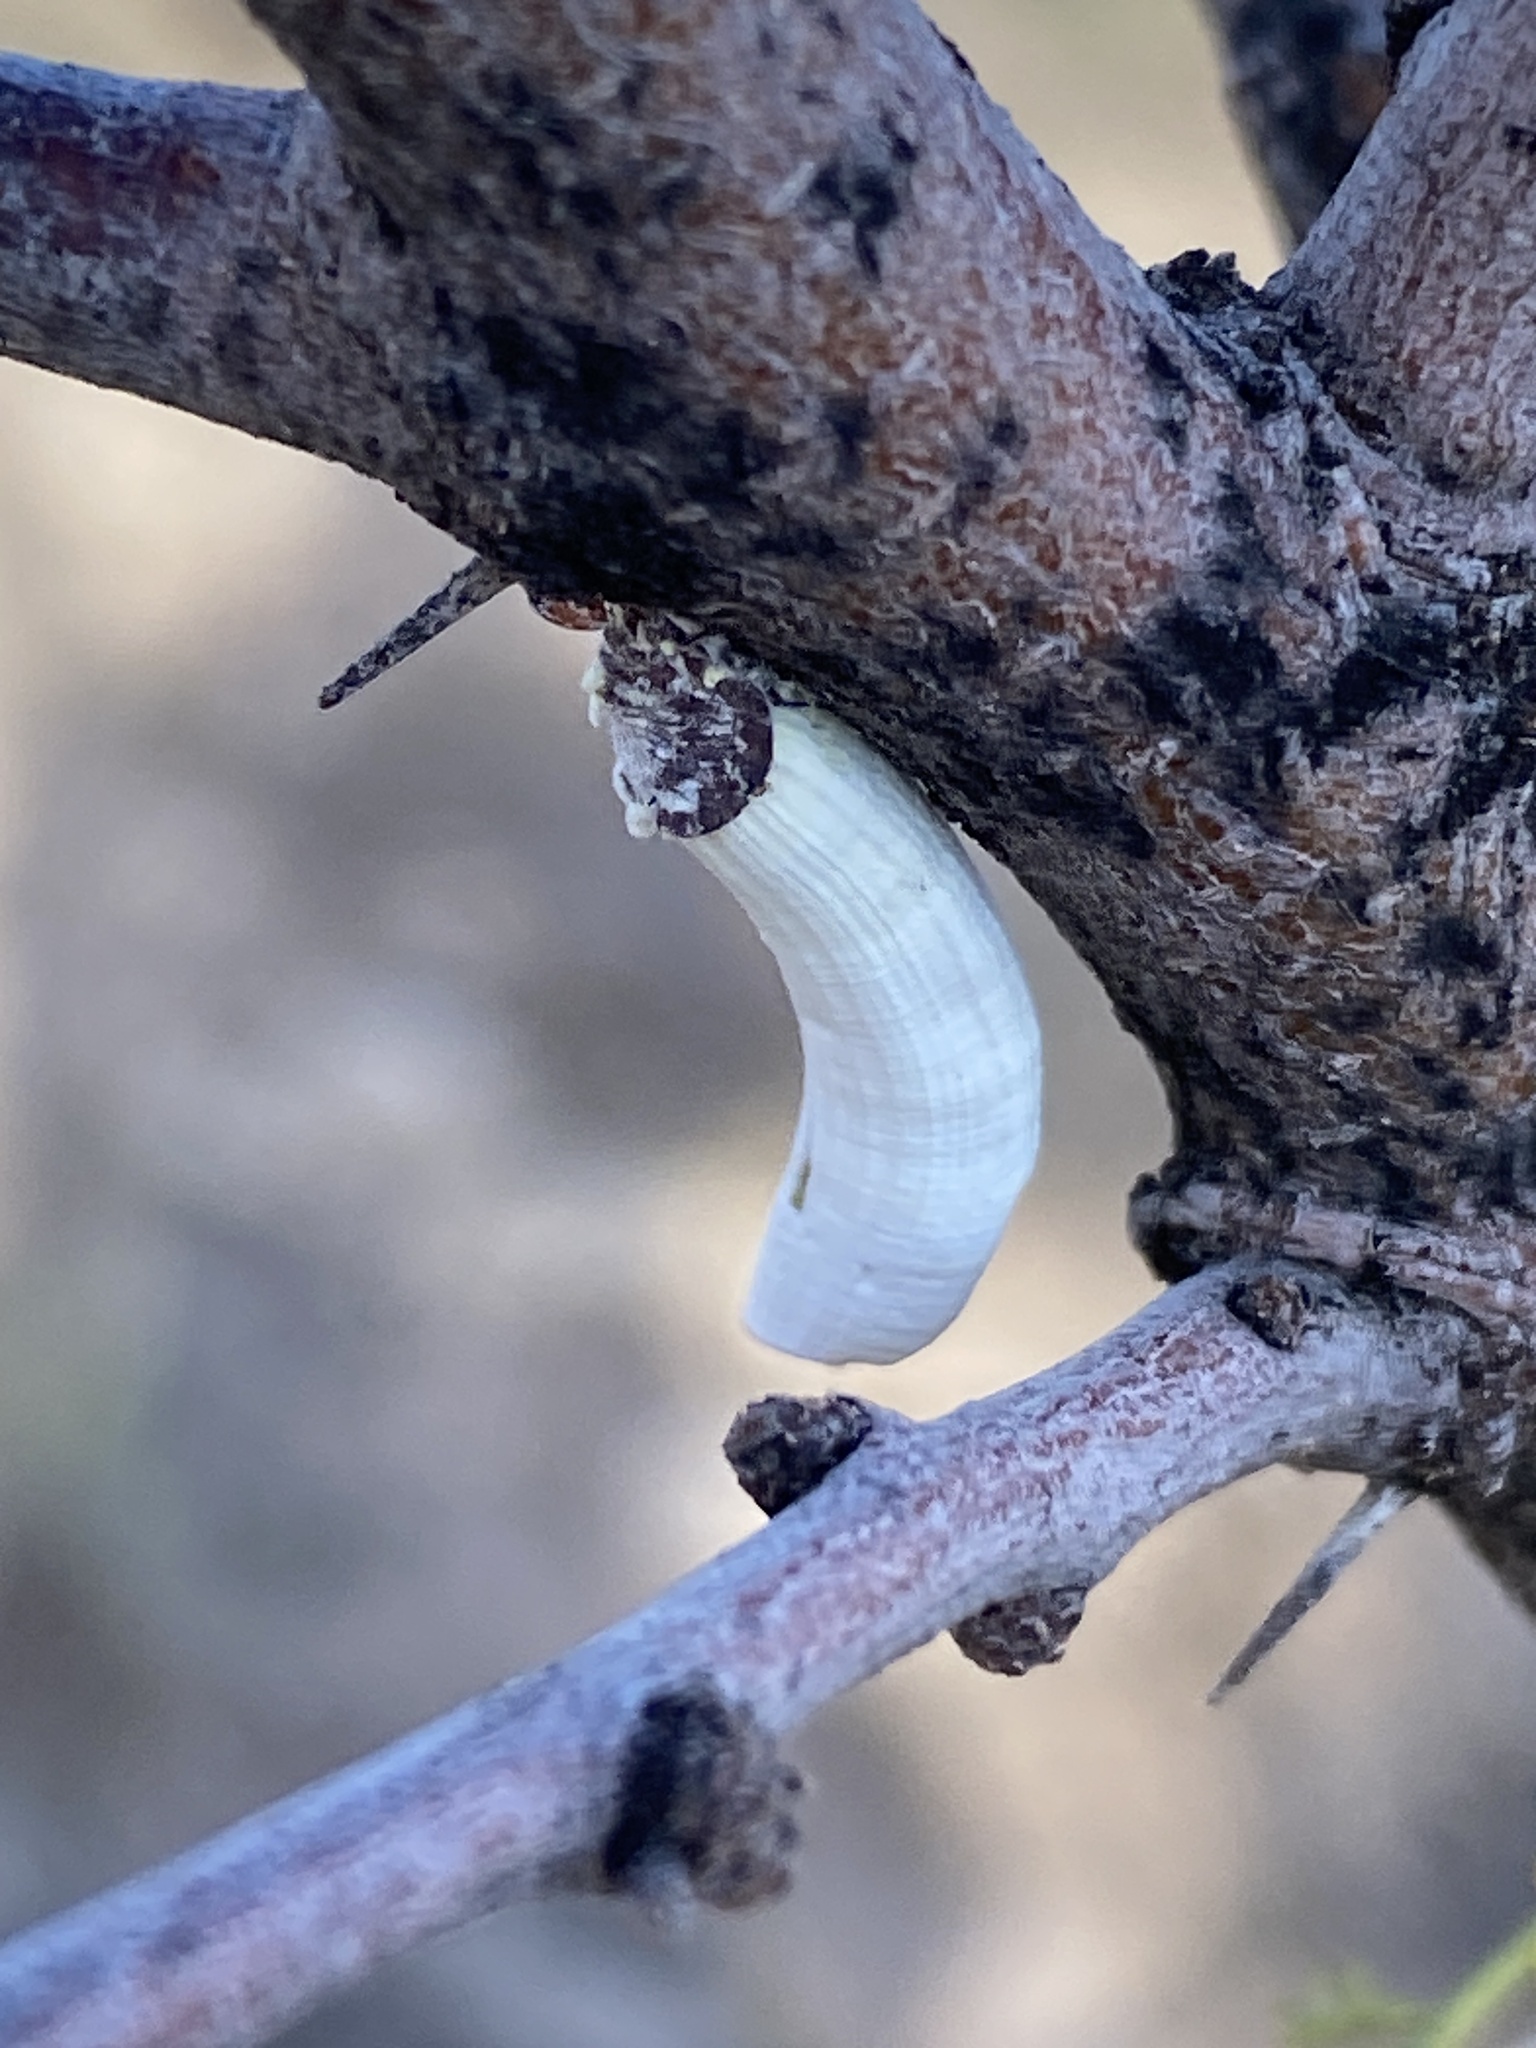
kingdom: Animalia
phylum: Arthropoda
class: Insecta
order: Hemiptera
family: Margarodidae
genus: Crypticerya
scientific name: Crypticerya rileyi
